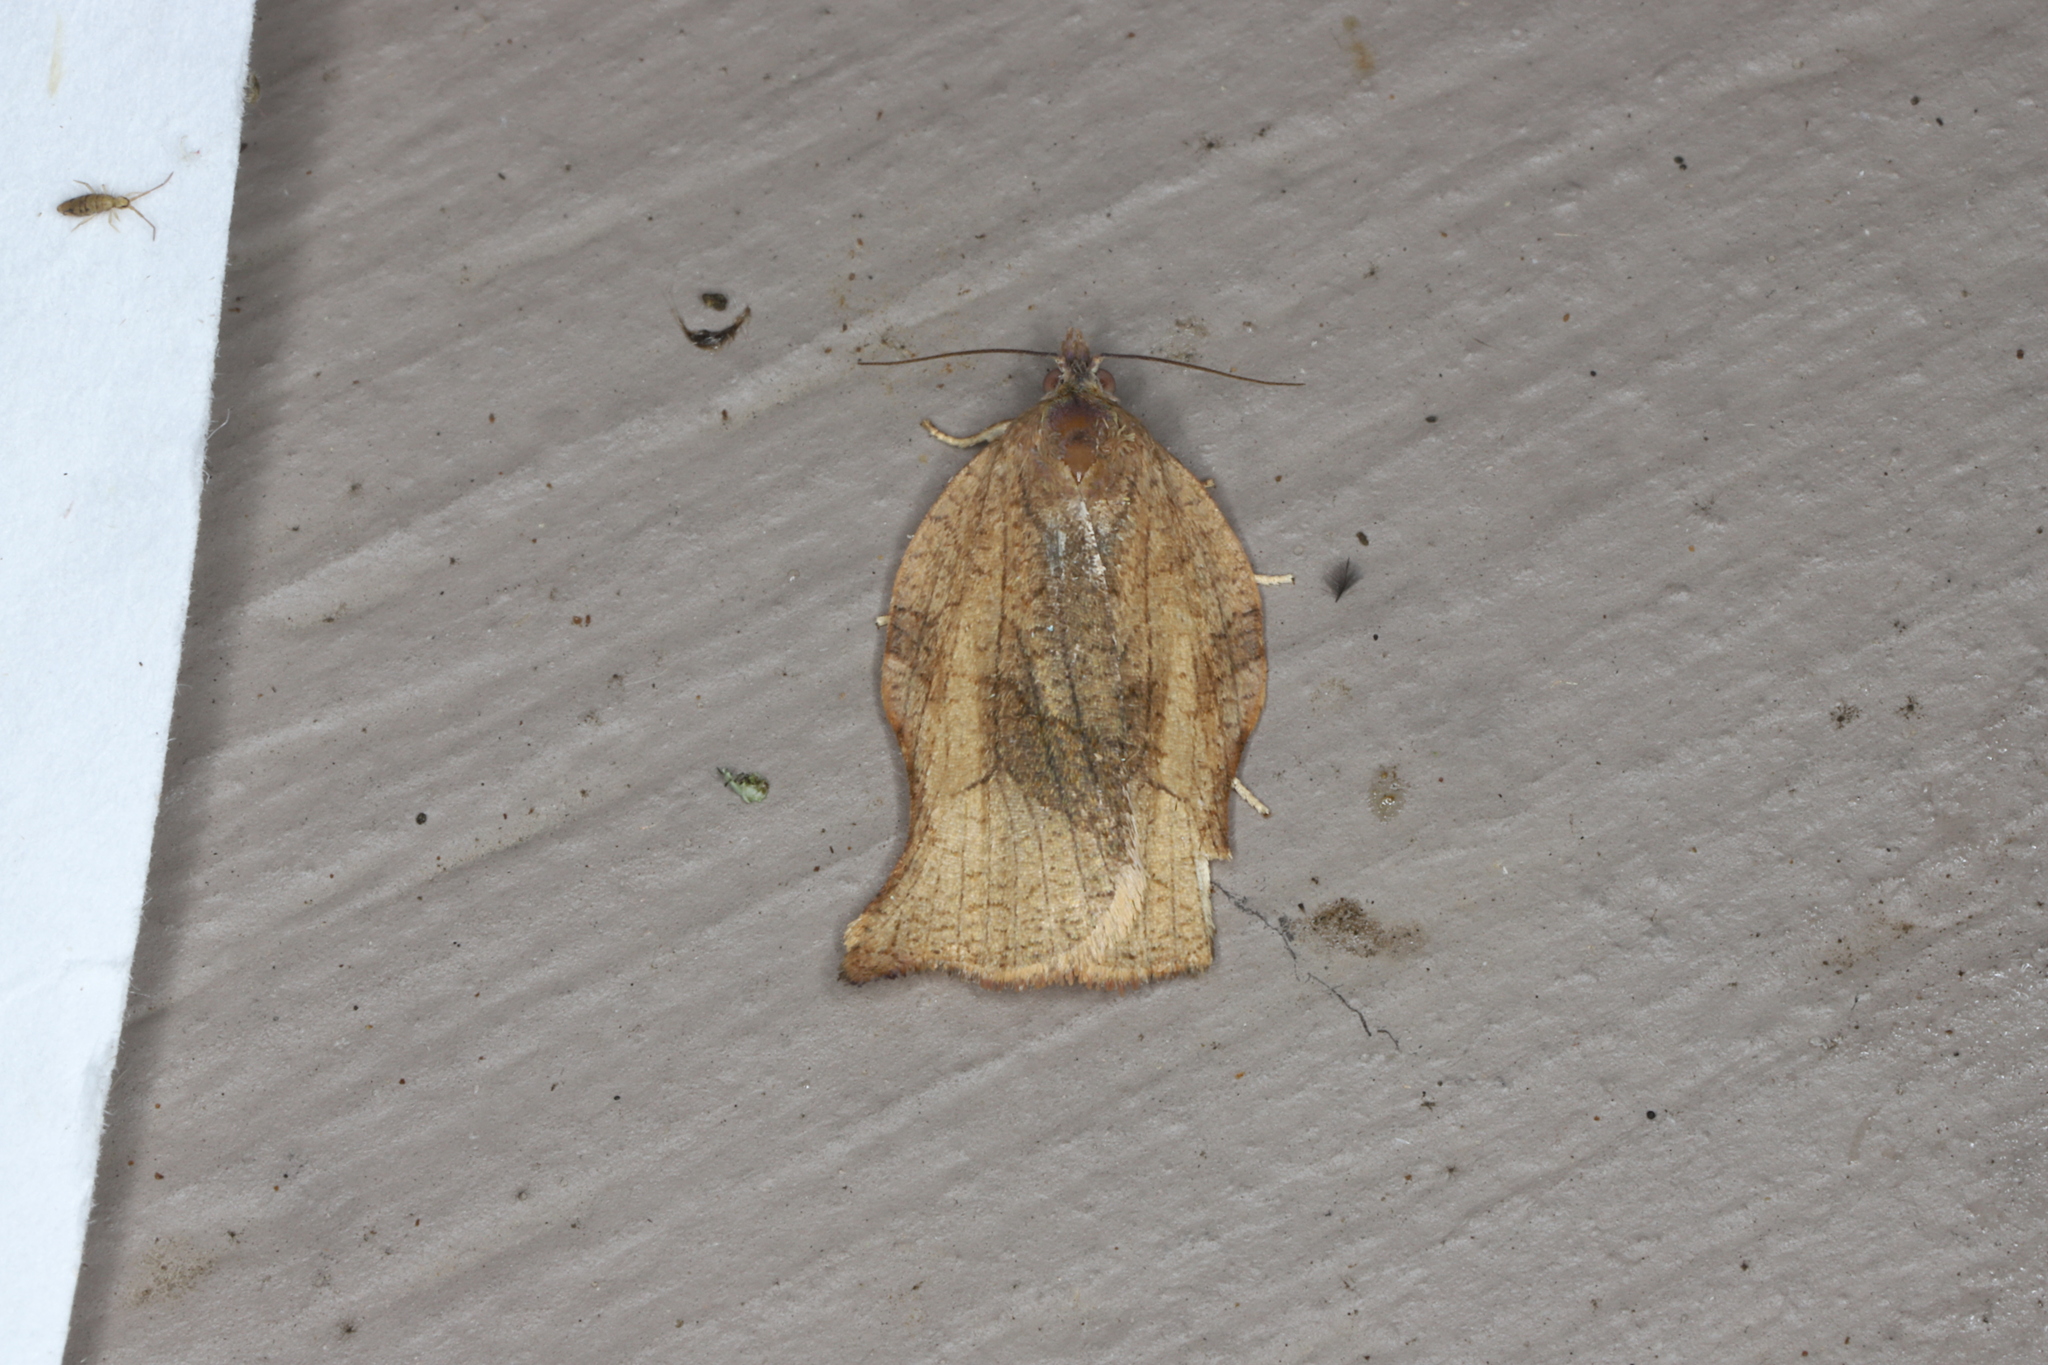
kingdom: Animalia
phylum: Arthropoda
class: Insecta
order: Lepidoptera
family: Tortricidae
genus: Archips
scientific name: Archips purpurana
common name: Omnivorous leafroller
